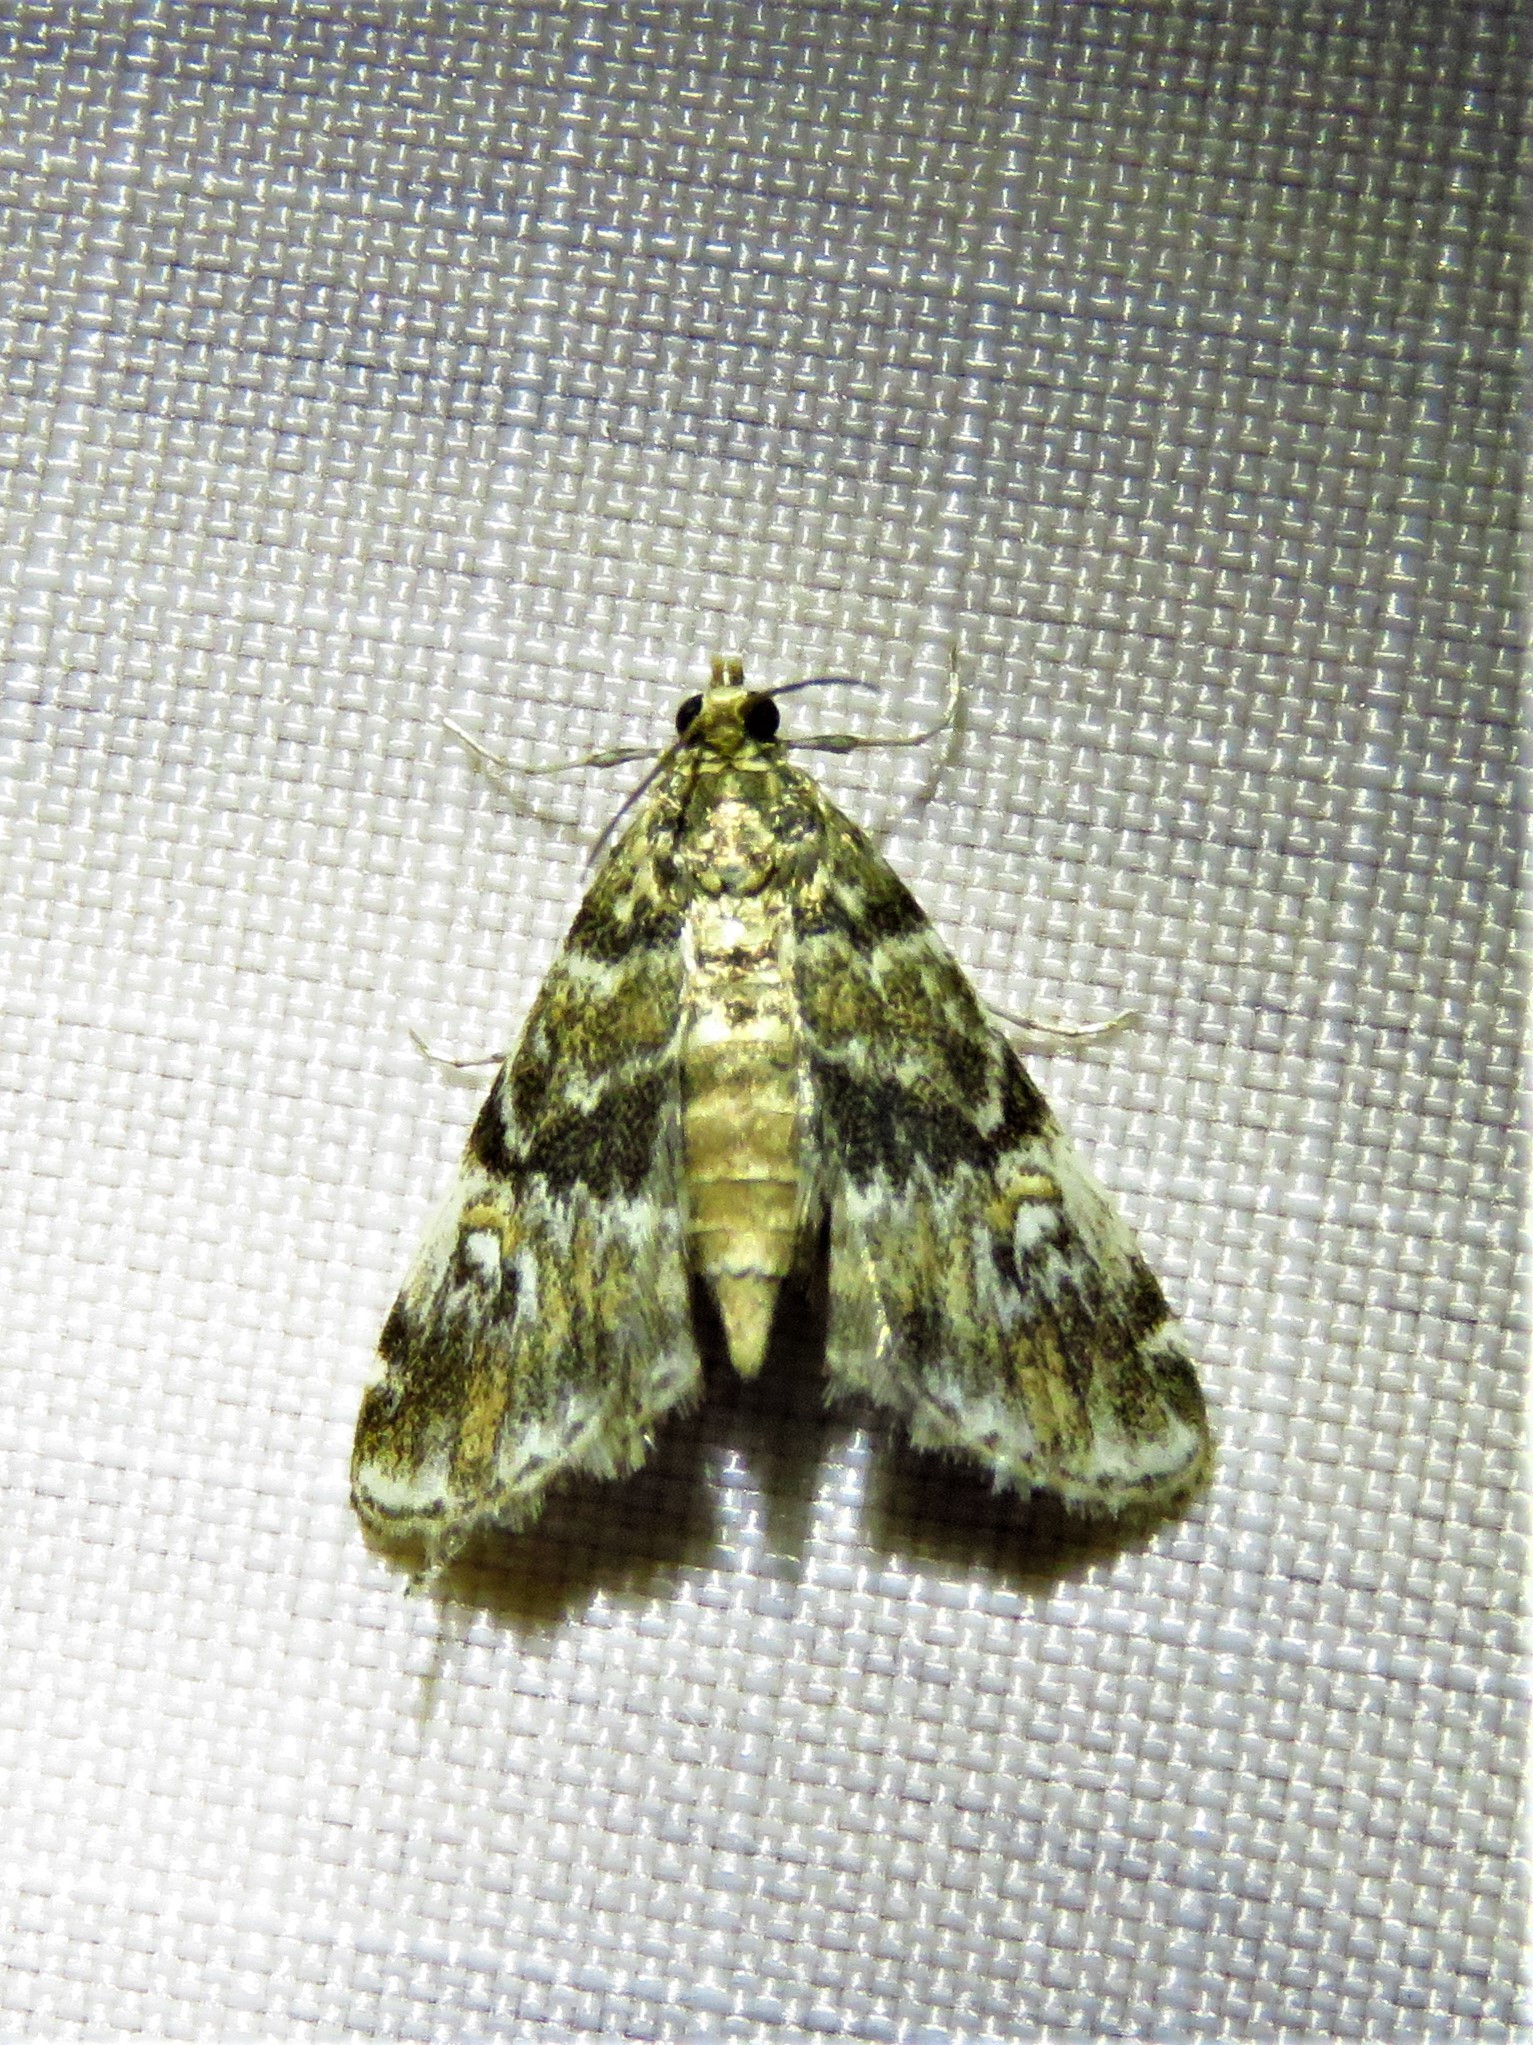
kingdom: Animalia
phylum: Arthropoda
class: Insecta
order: Lepidoptera
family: Crambidae
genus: Elophila
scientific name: Elophila obliteralis
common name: Waterlily leafcutter moth
